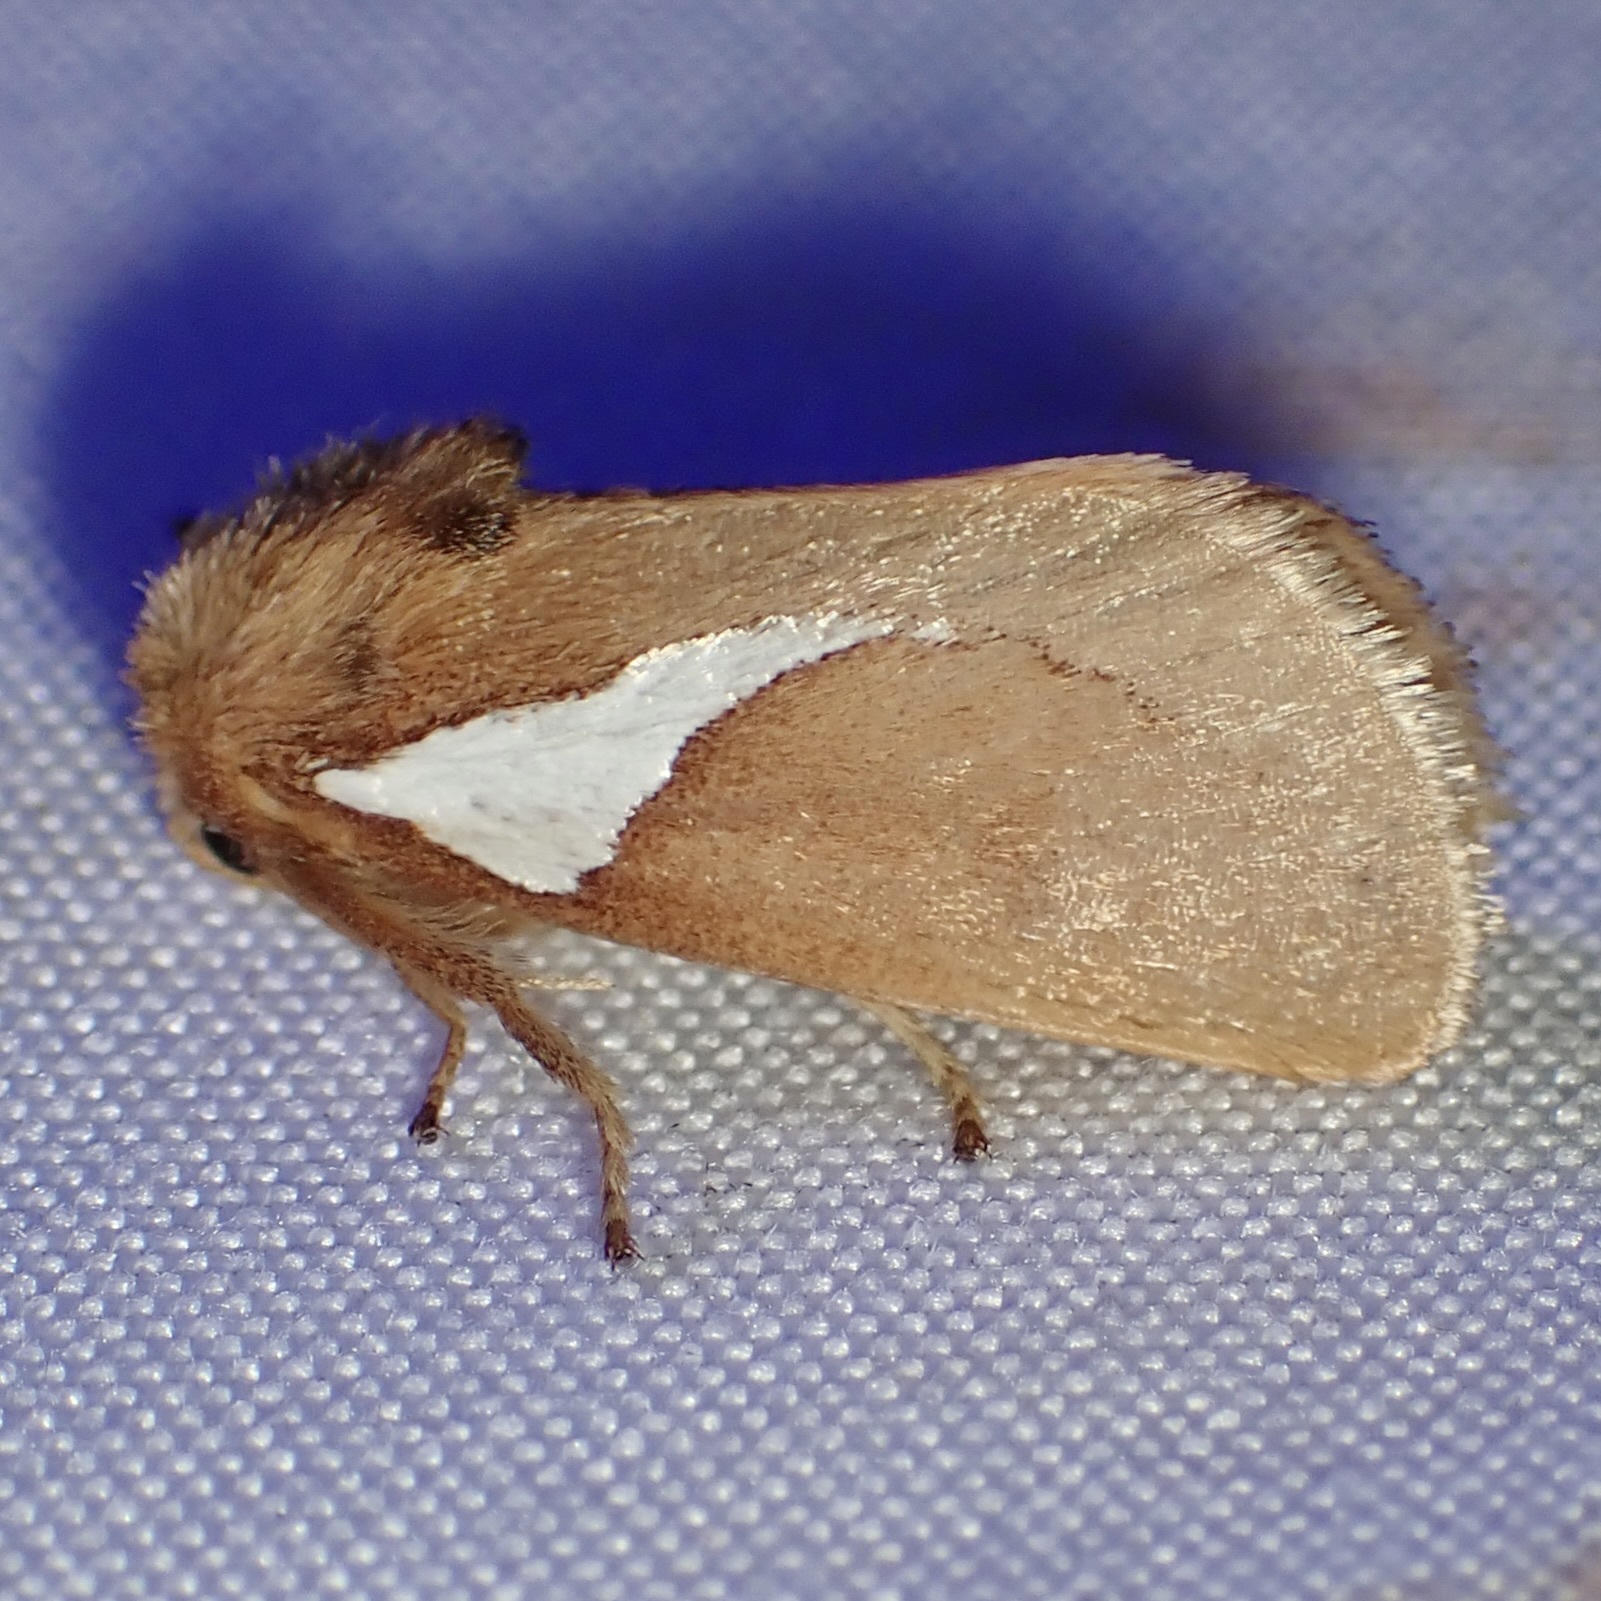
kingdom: Animalia
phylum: Arthropoda
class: Insecta
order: Lepidoptera
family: Limacodidae
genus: Prolimacodes
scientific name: Prolimacodes trigona
